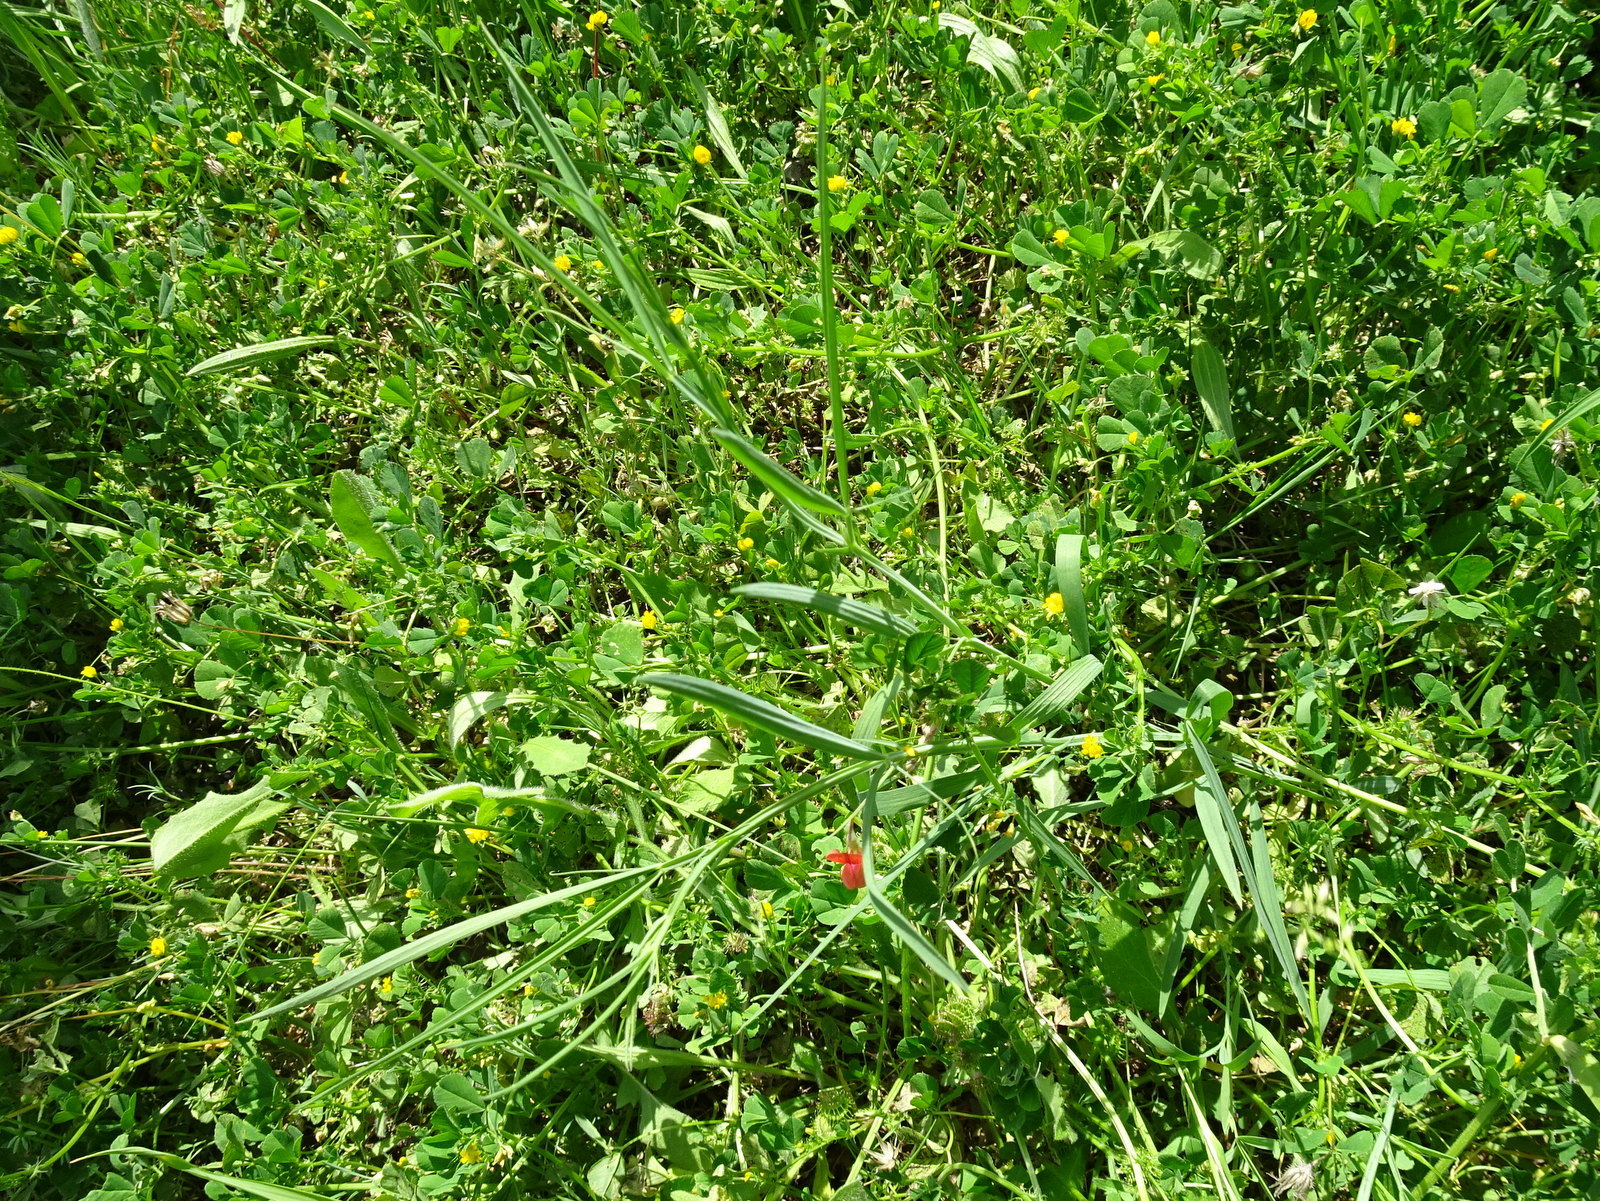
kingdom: Plantae
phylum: Tracheophyta
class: Magnoliopsida
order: Fabales
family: Fabaceae
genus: Lathyrus
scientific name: Lathyrus cicera
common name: Red vetchling
